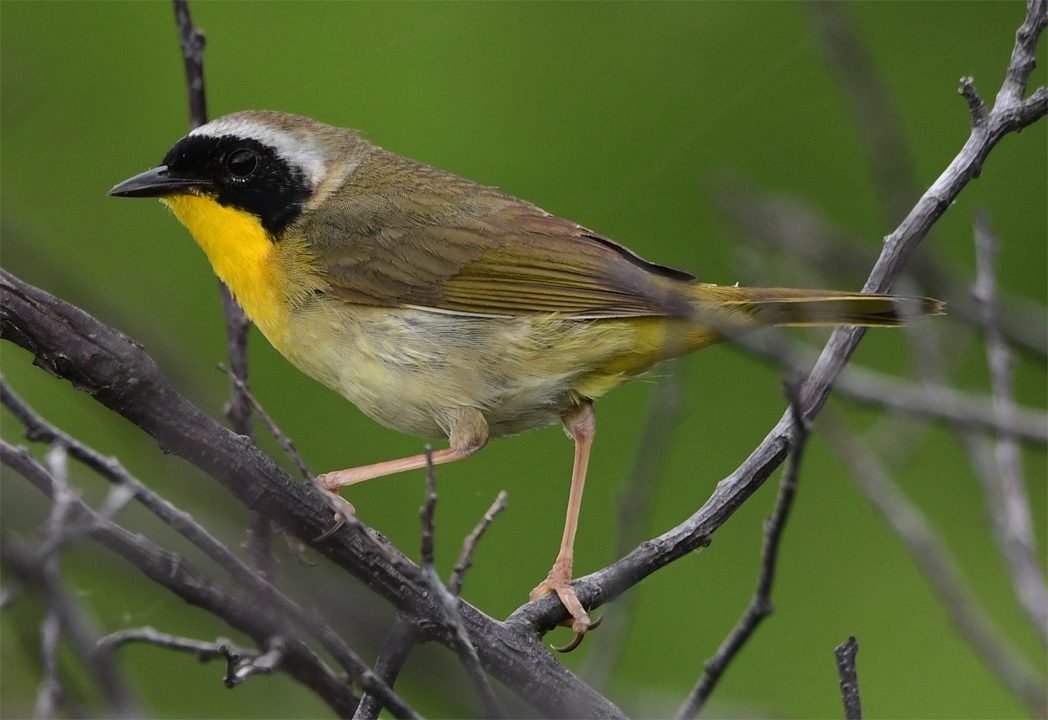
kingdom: Animalia
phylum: Chordata
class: Aves
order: Passeriformes
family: Parulidae
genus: Geothlypis
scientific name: Geothlypis trichas
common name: Common yellowthroat
